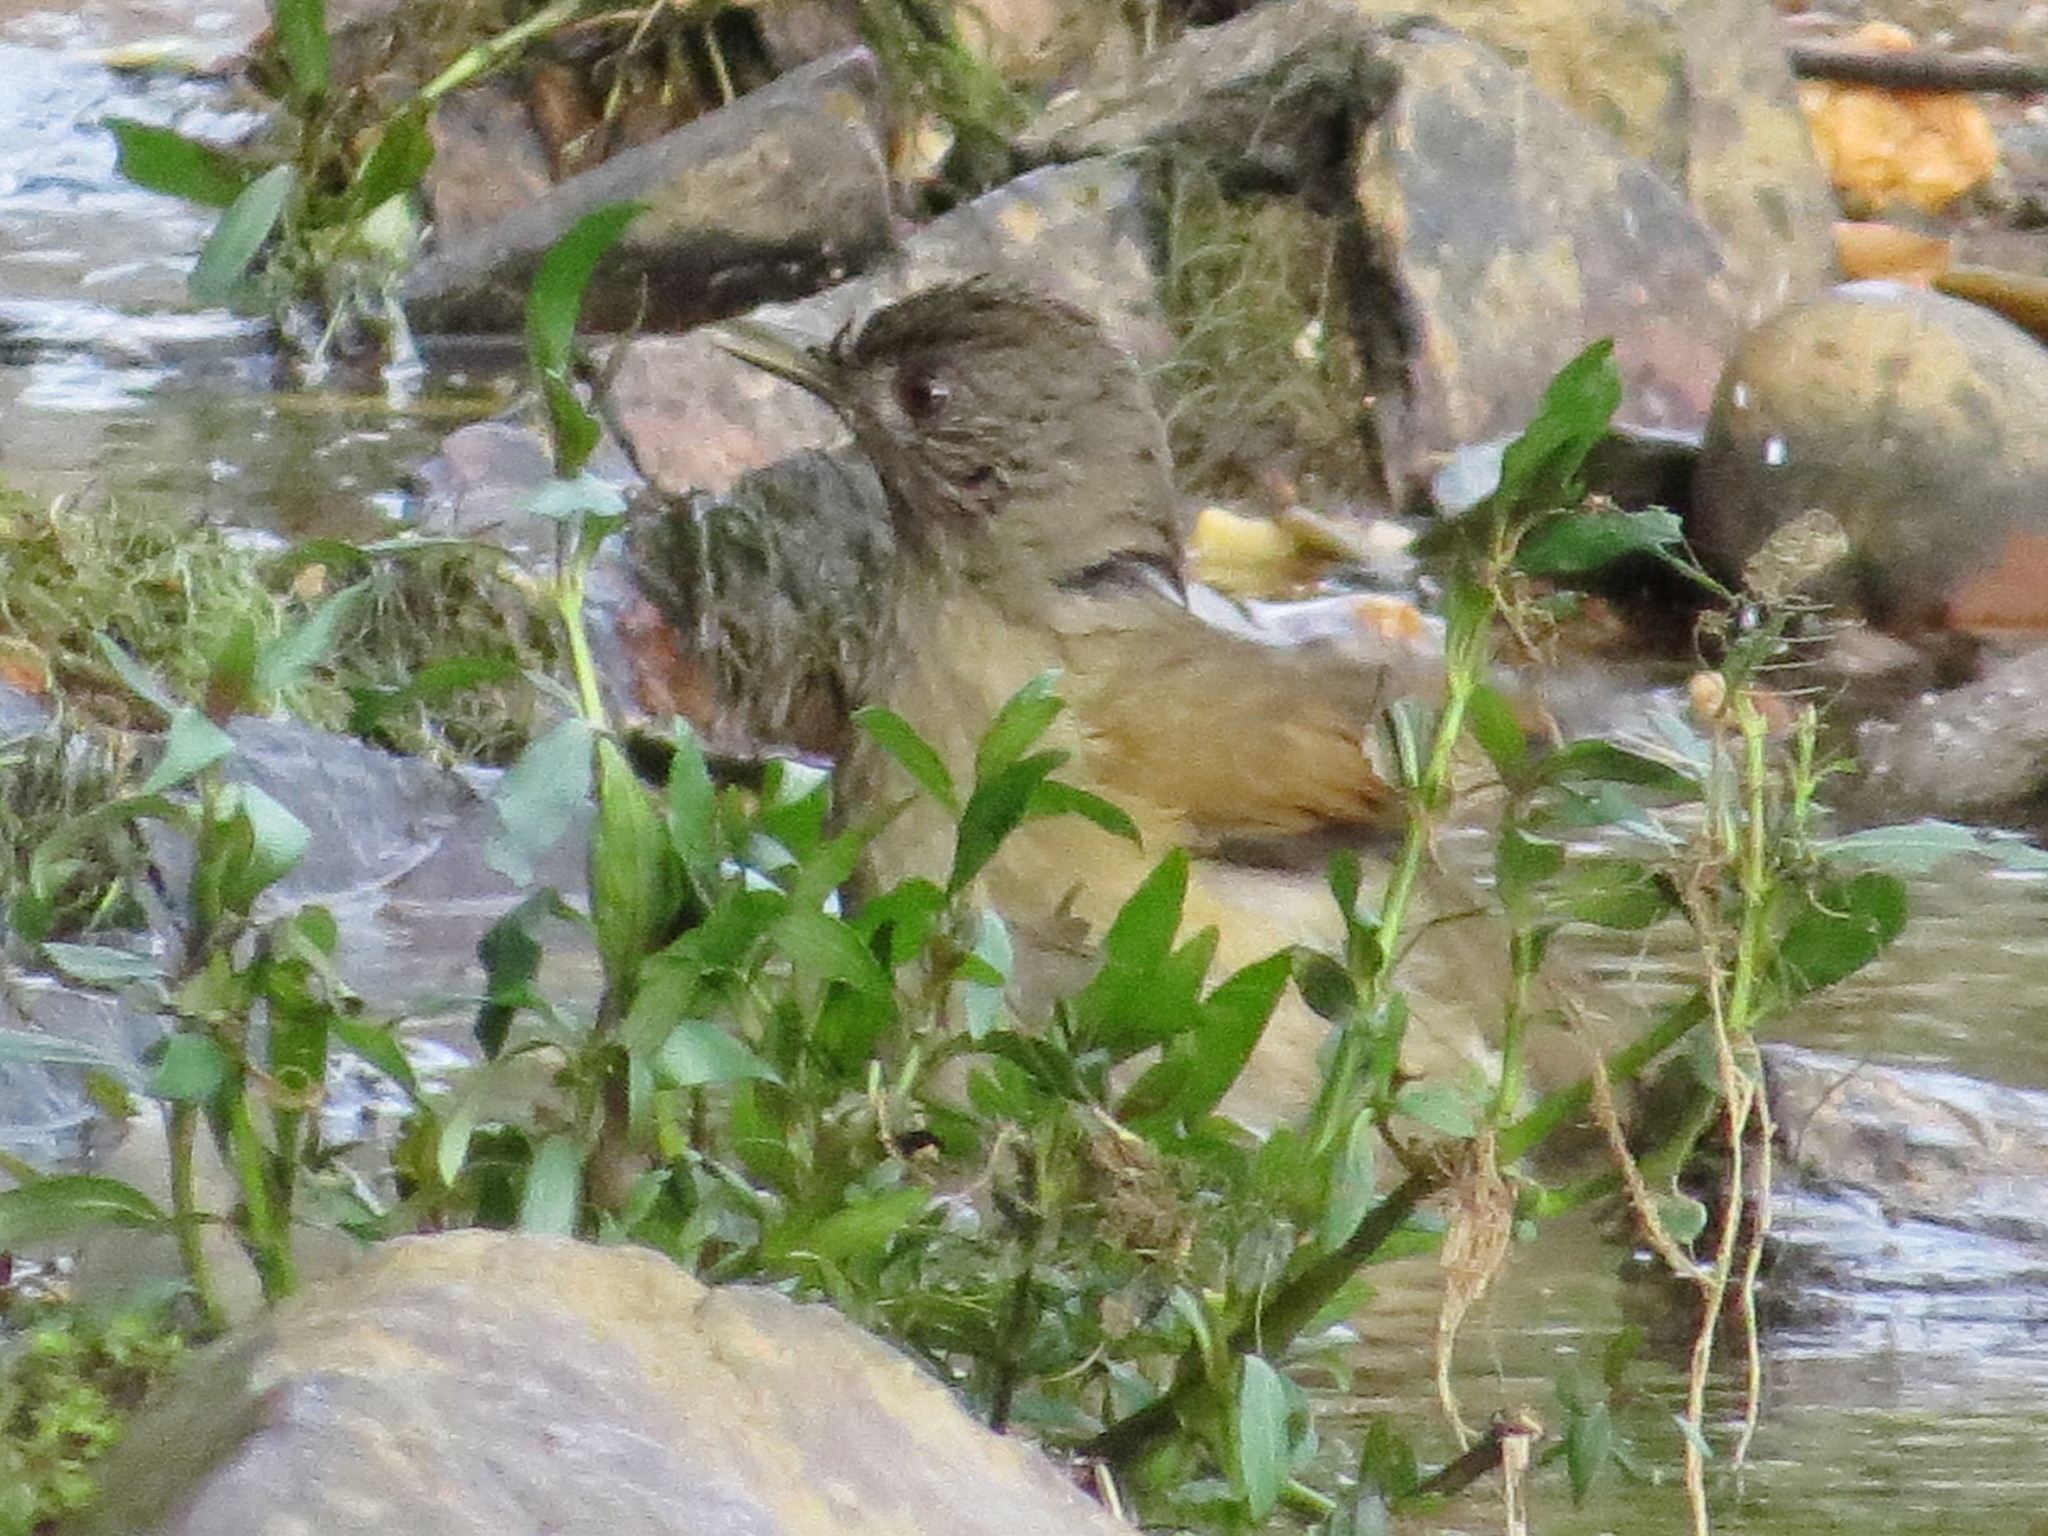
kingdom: Animalia
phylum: Chordata
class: Aves
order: Passeriformes
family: Turdidae
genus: Turdus
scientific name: Turdus leucomelas
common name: Pale-breasted thrush
